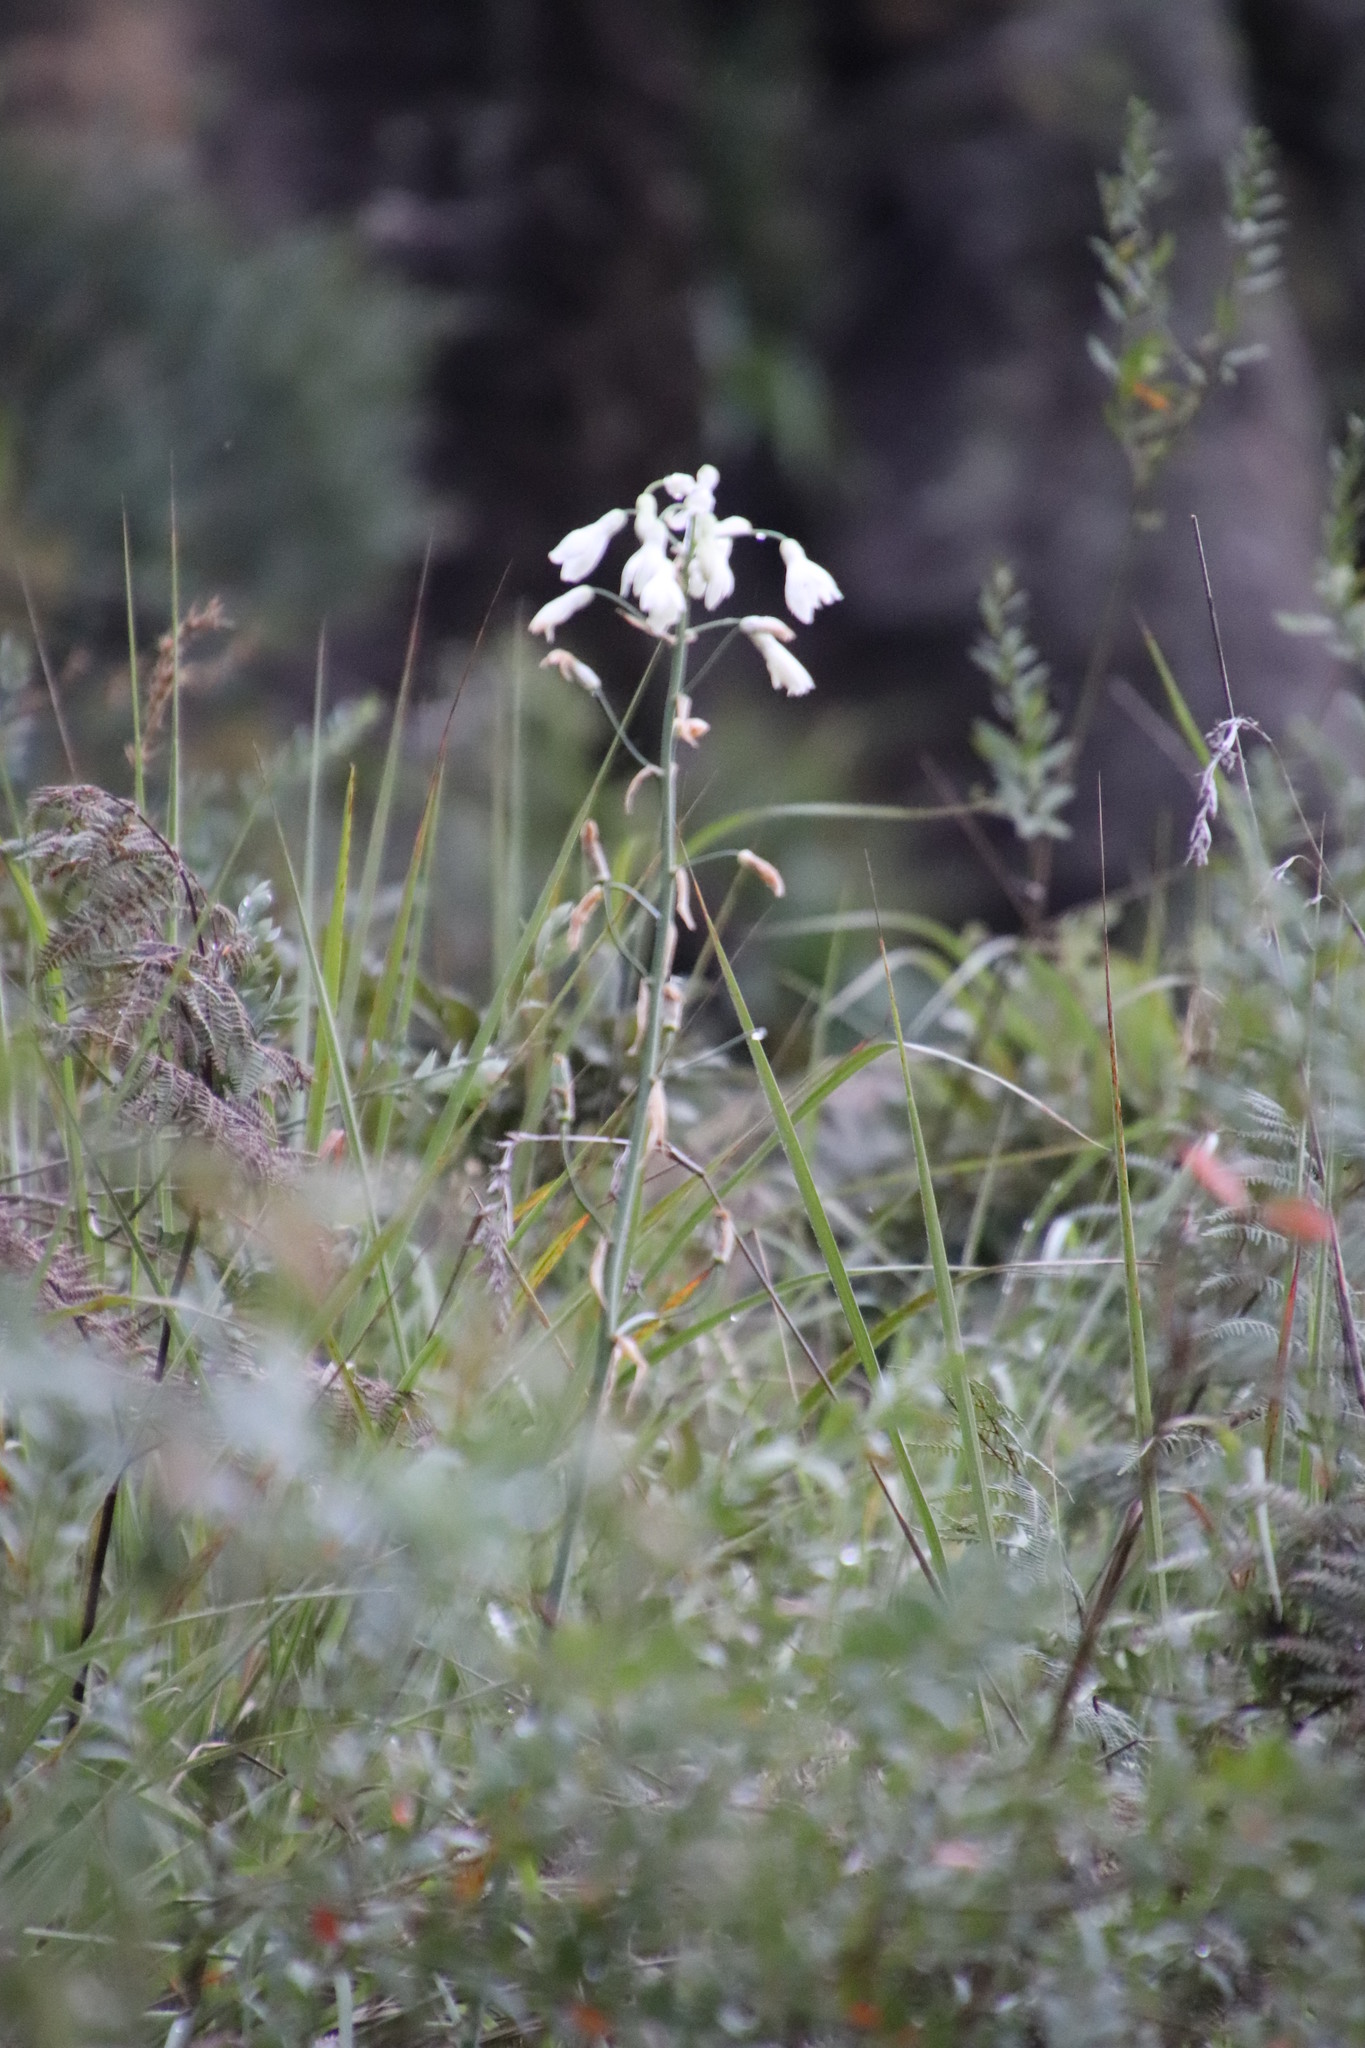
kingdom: Plantae
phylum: Tracheophyta
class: Liliopsida
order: Asparagales
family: Asparagaceae
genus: Ornithogalum
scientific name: Ornithogalum candicans
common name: Summer-hyacinth
